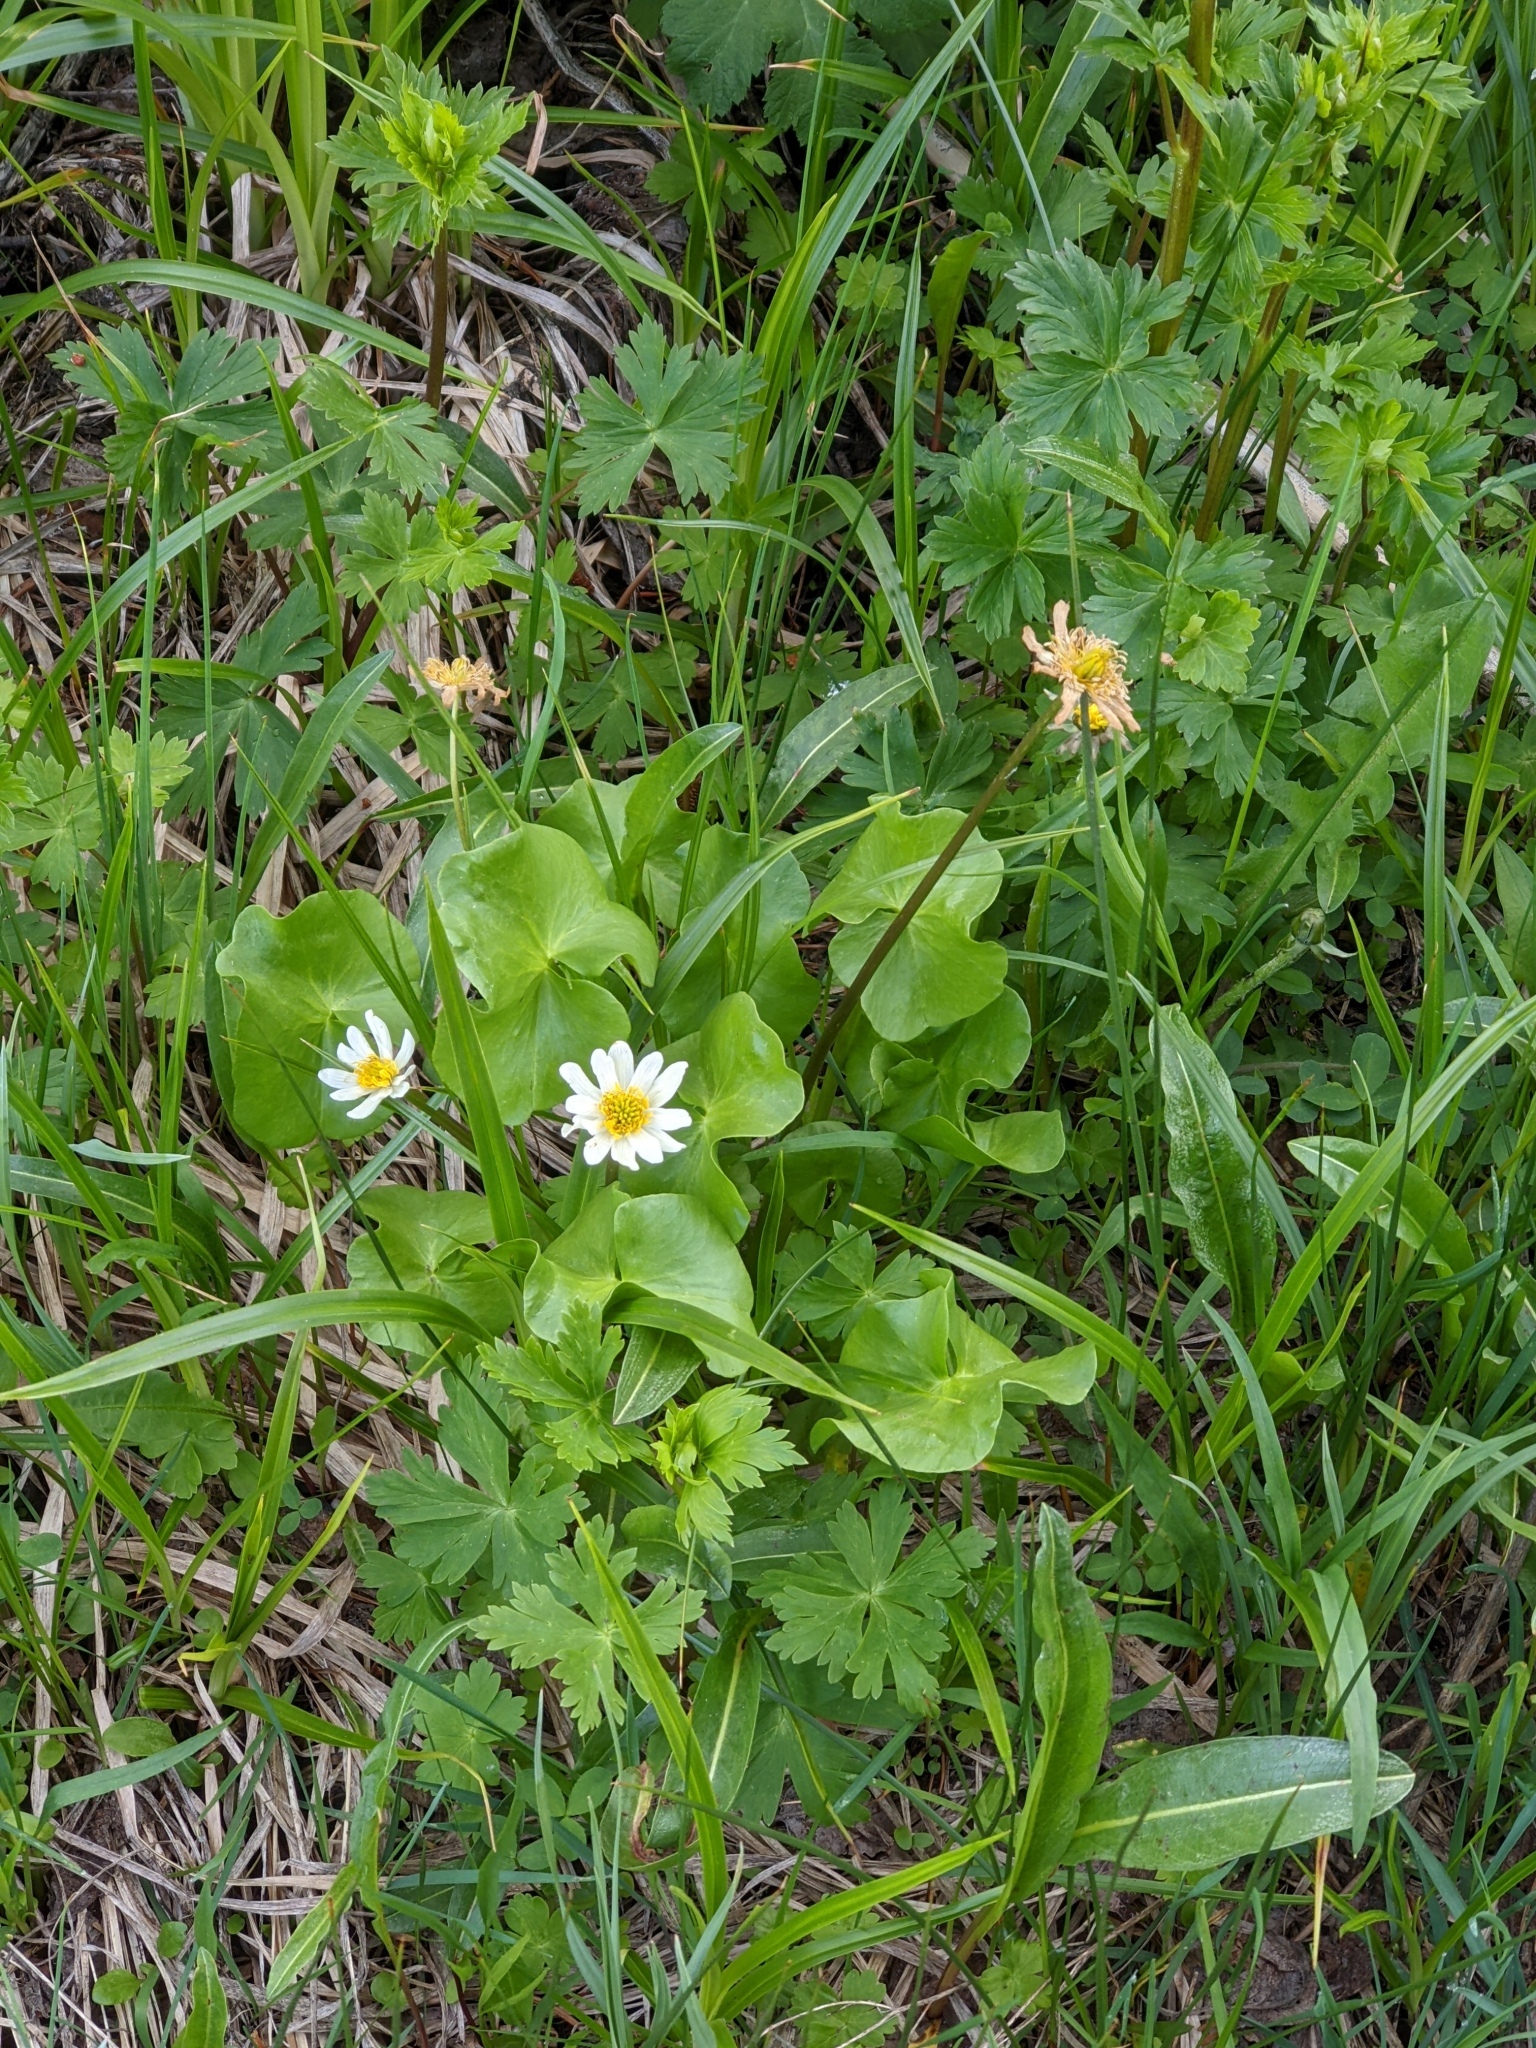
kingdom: Plantae
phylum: Tracheophyta
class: Magnoliopsida
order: Ranunculales
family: Ranunculaceae
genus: Caltha
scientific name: Caltha leptosepala
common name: Elkslip
